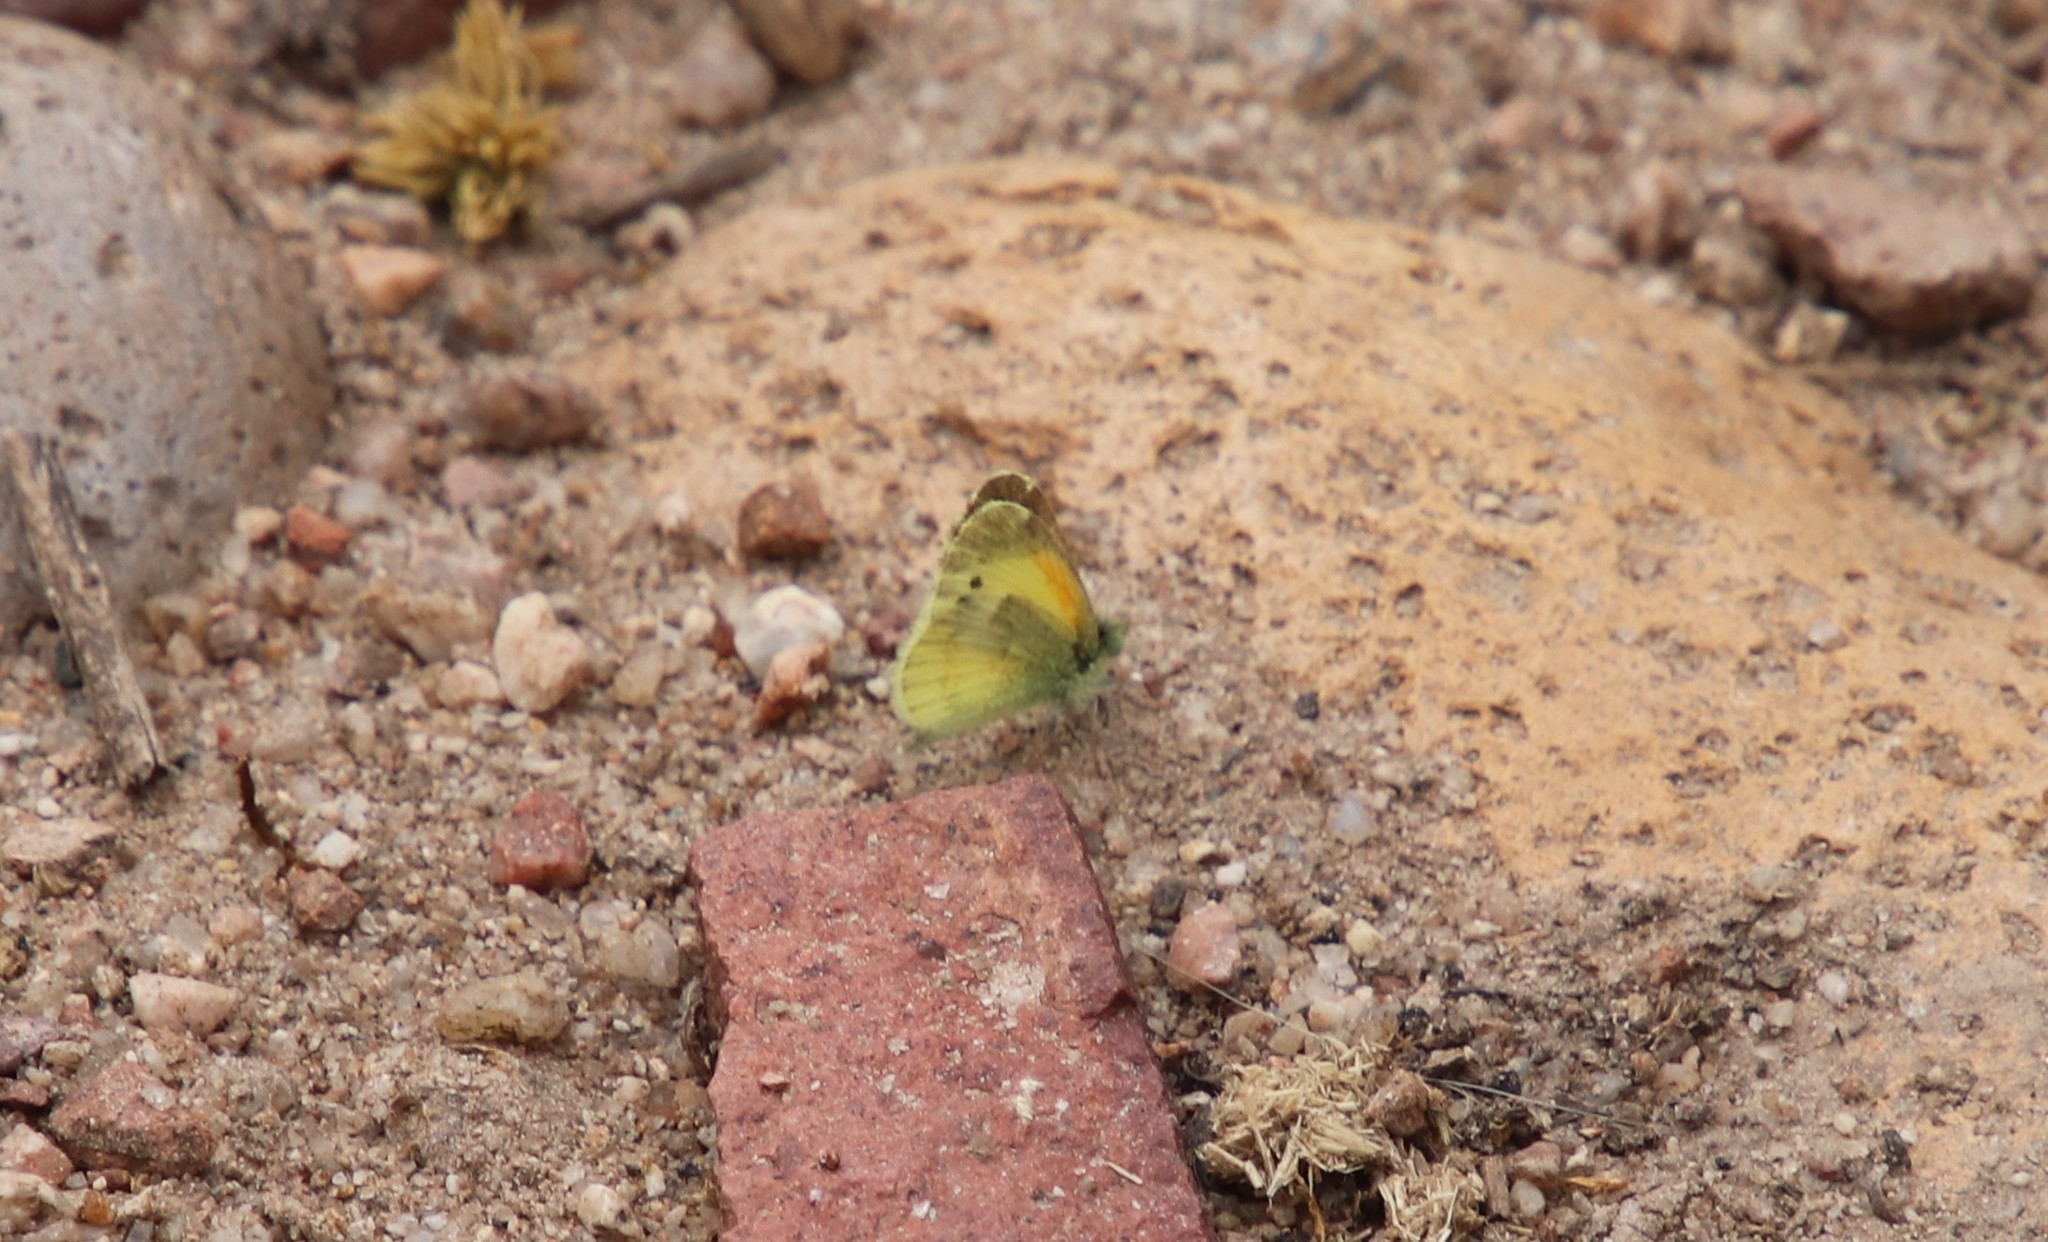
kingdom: Animalia
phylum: Arthropoda
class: Insecta
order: Lepidoptera
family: Pieridae
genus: Nathalis
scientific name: Nathalis iole
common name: Dainty sulphur
